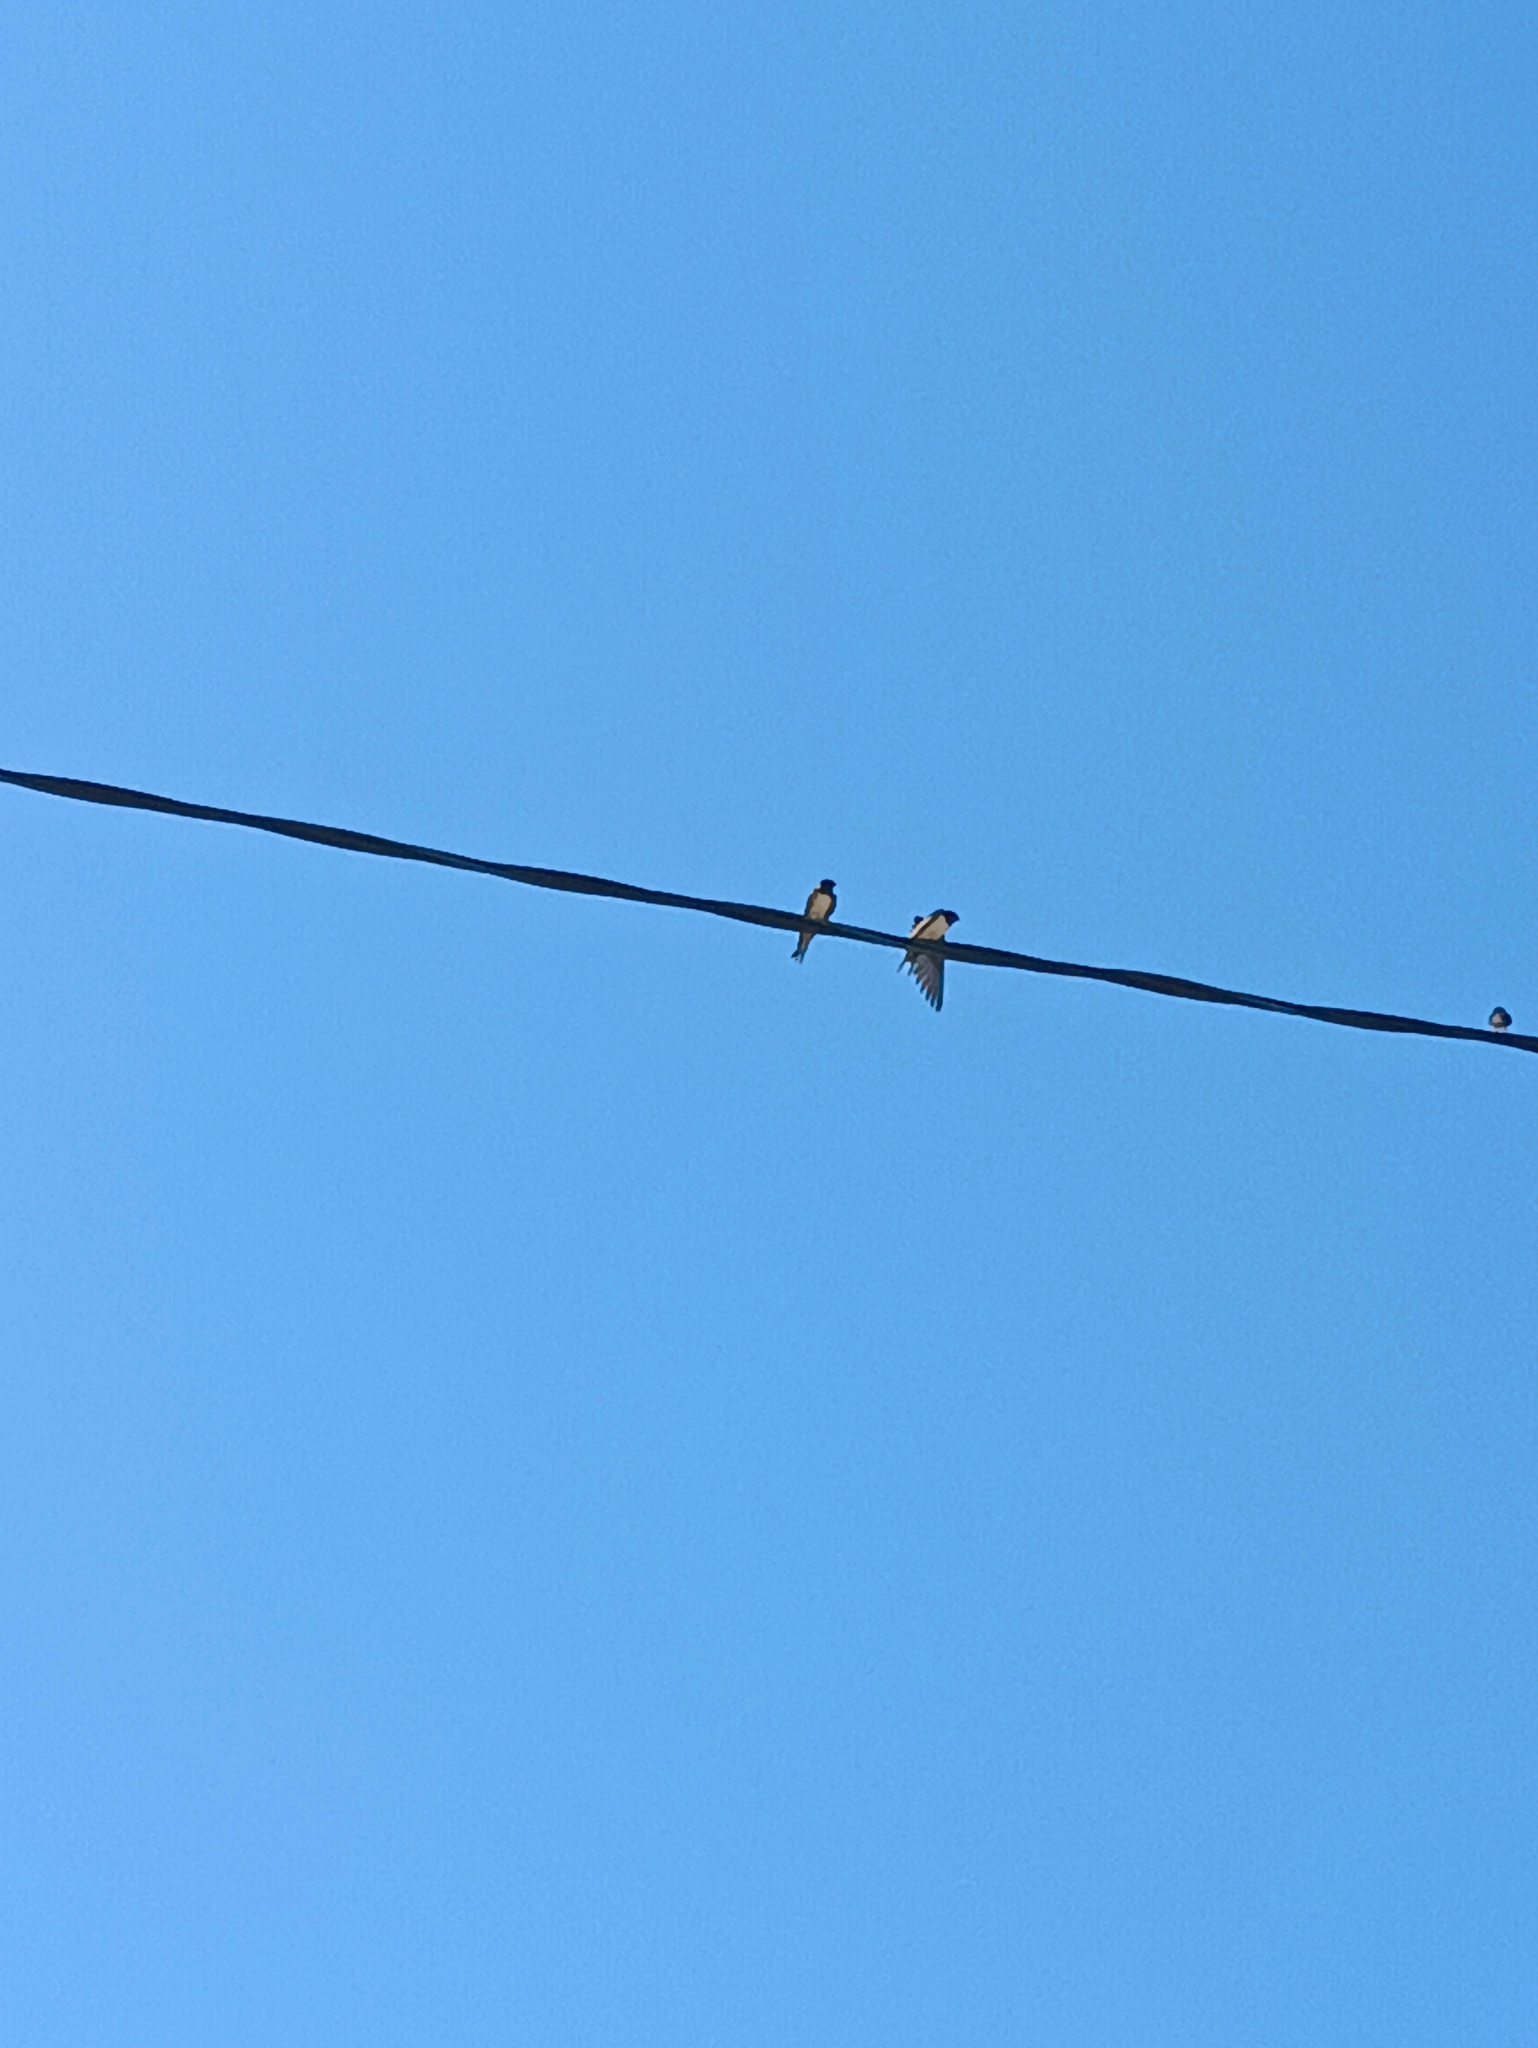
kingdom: Animalia
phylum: Chordata
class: Aves
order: Passeriformes
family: Hirundinidae
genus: Hirundo
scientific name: Hirundo rustica
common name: Barn swallow
